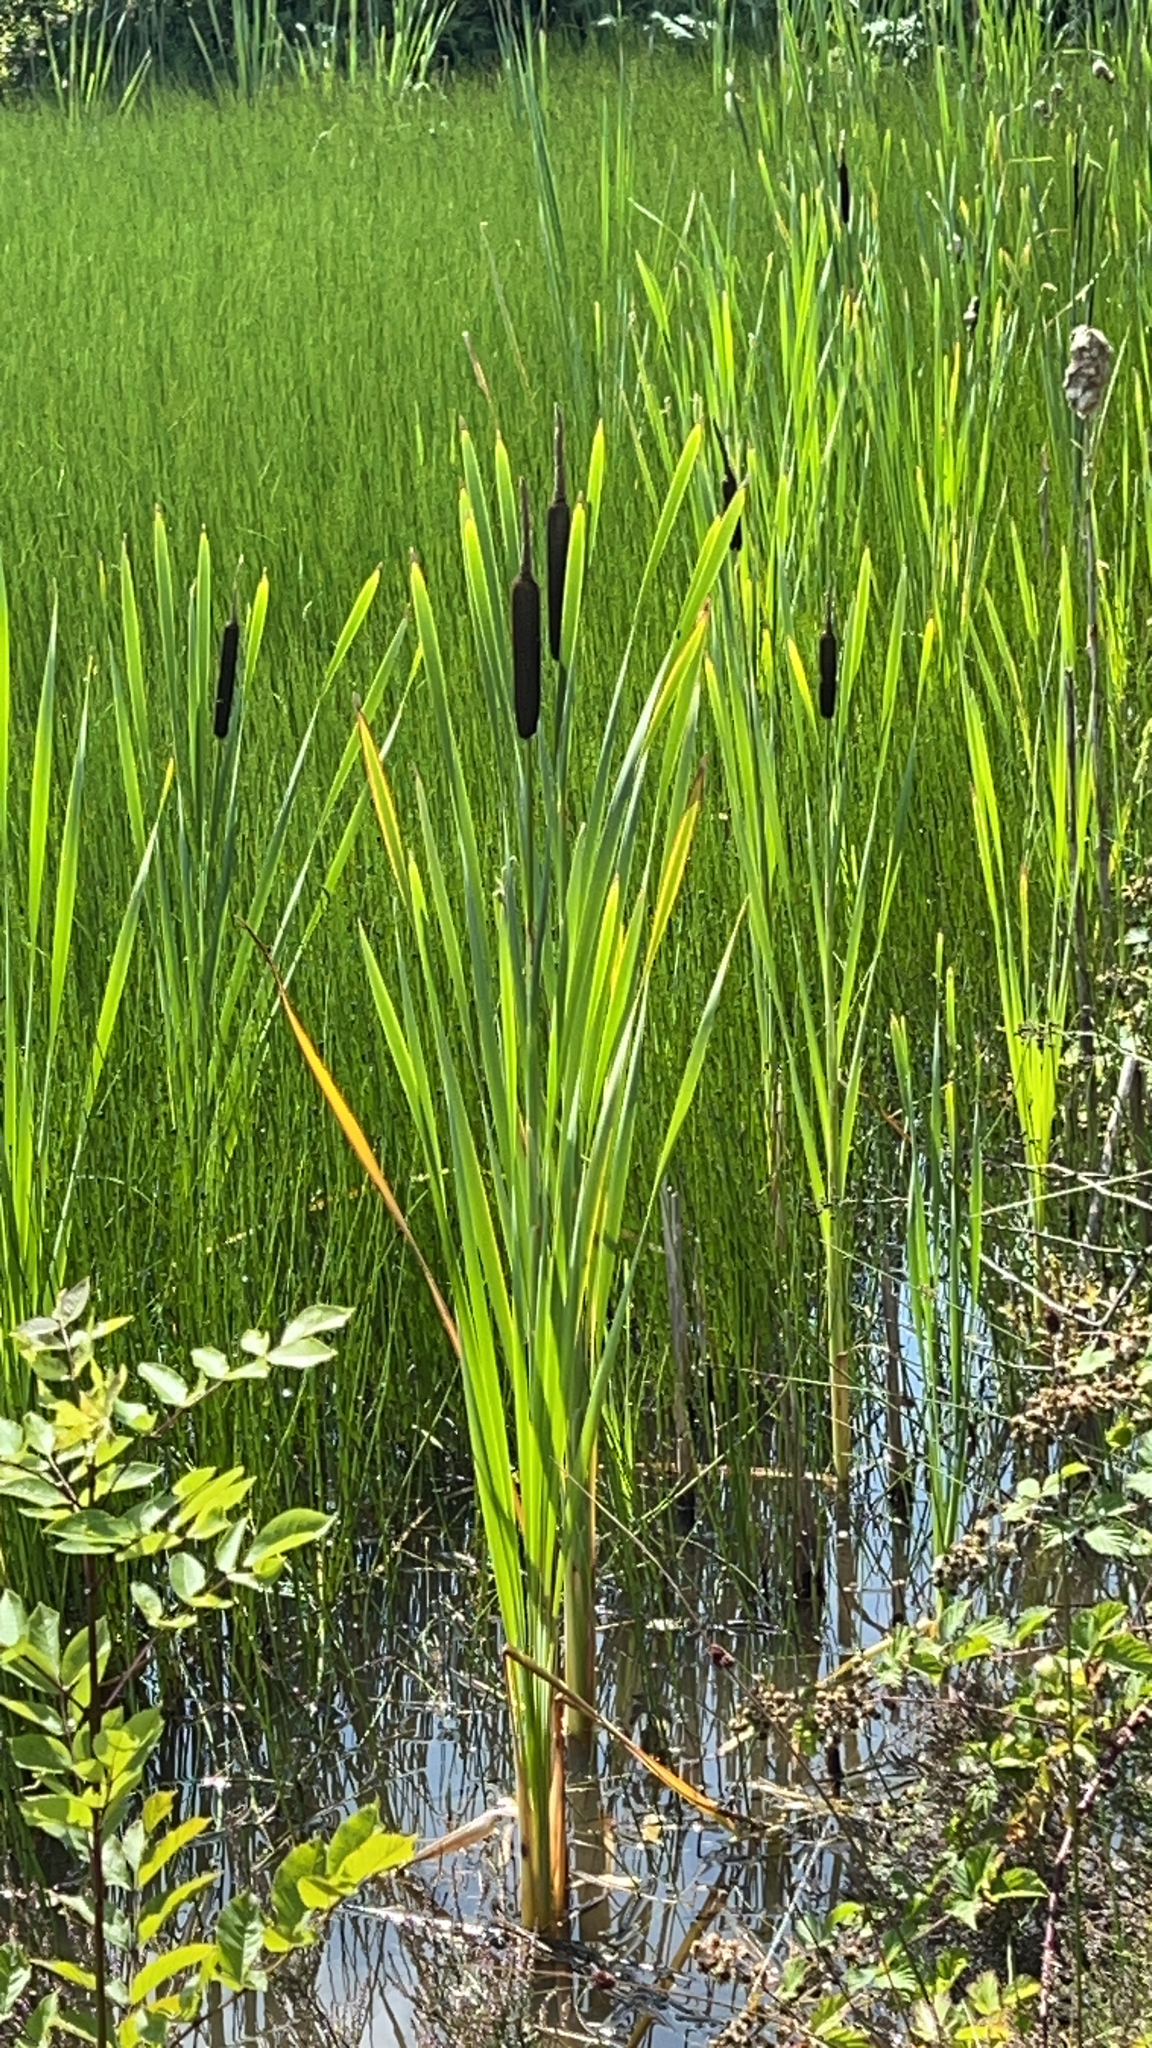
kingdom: Plantae
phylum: Tracheophyta
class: Liliopsida
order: Poales
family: Typhaceae
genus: Typha
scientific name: Typha latifolia
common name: Broadleaf cattail
